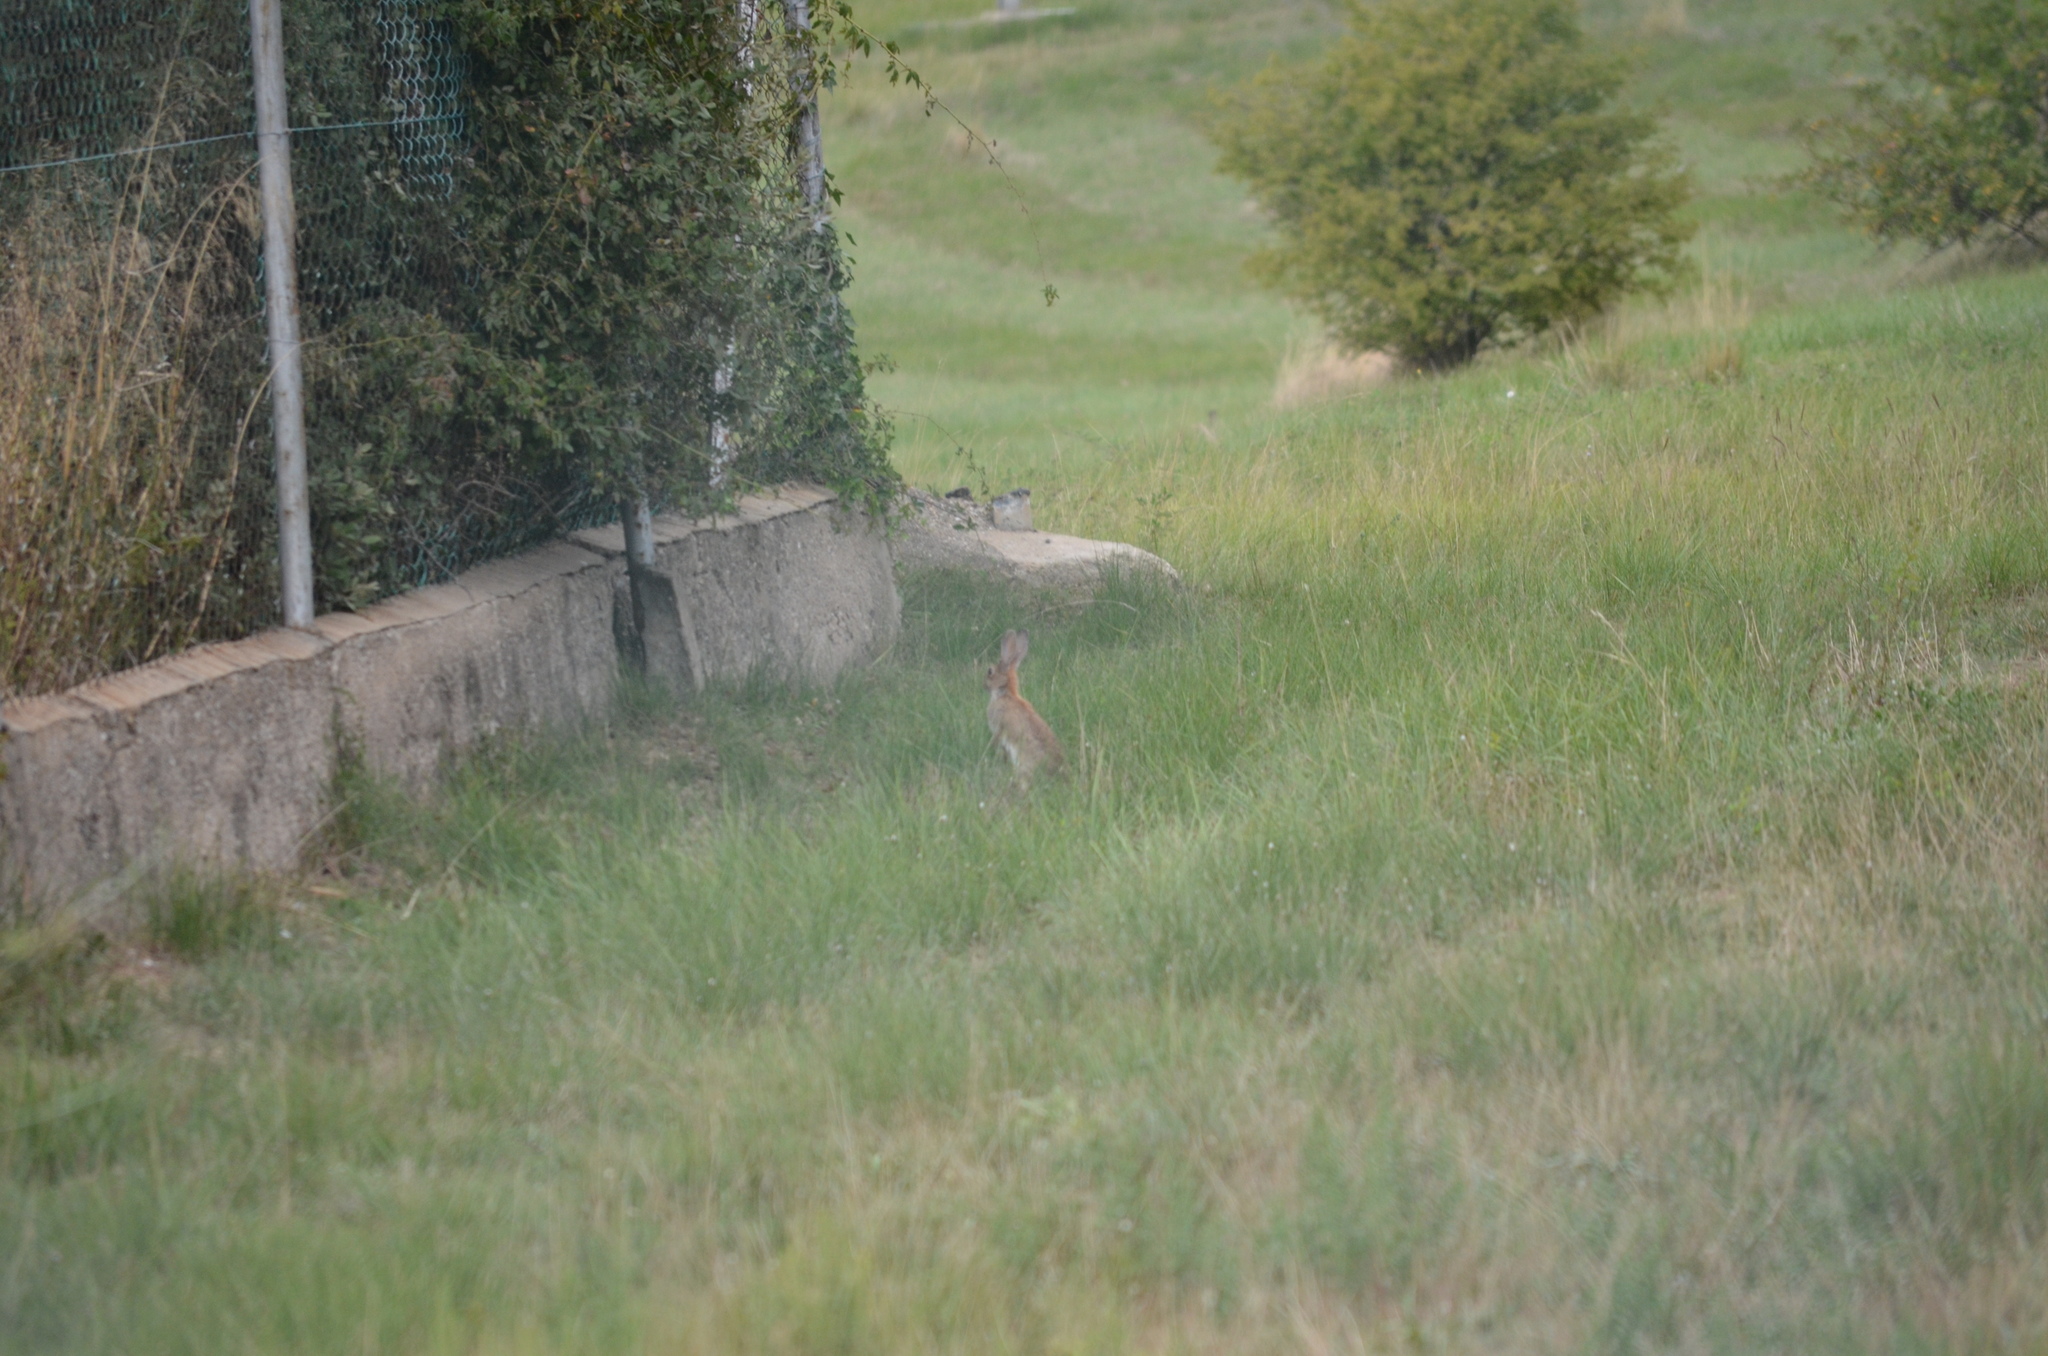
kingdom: Animalia
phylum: Chordata
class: Mammalia
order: Lagomorpha
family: Leporidae
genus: Oryctolagus
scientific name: Oryctolagus cuniculus
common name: European rabbit
